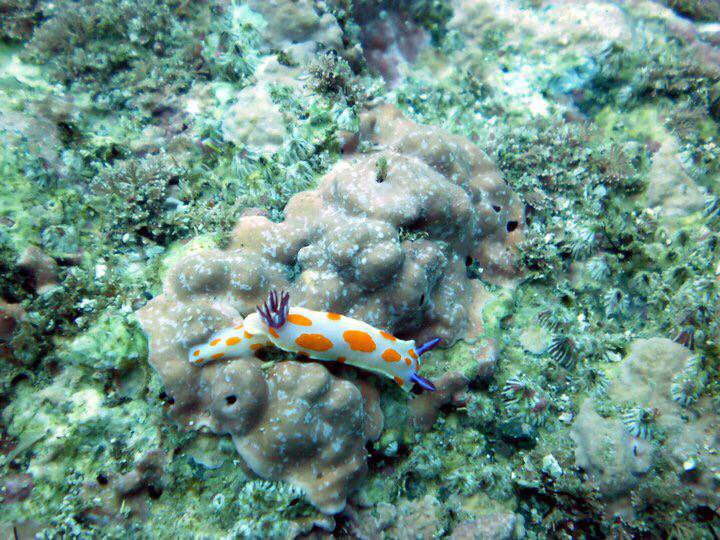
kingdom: Animalia
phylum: Mollusca
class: Gastropoda
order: Nudibranchia
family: Chromodorididae
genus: Ceratosoma
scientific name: Ceratosoma amoenum
